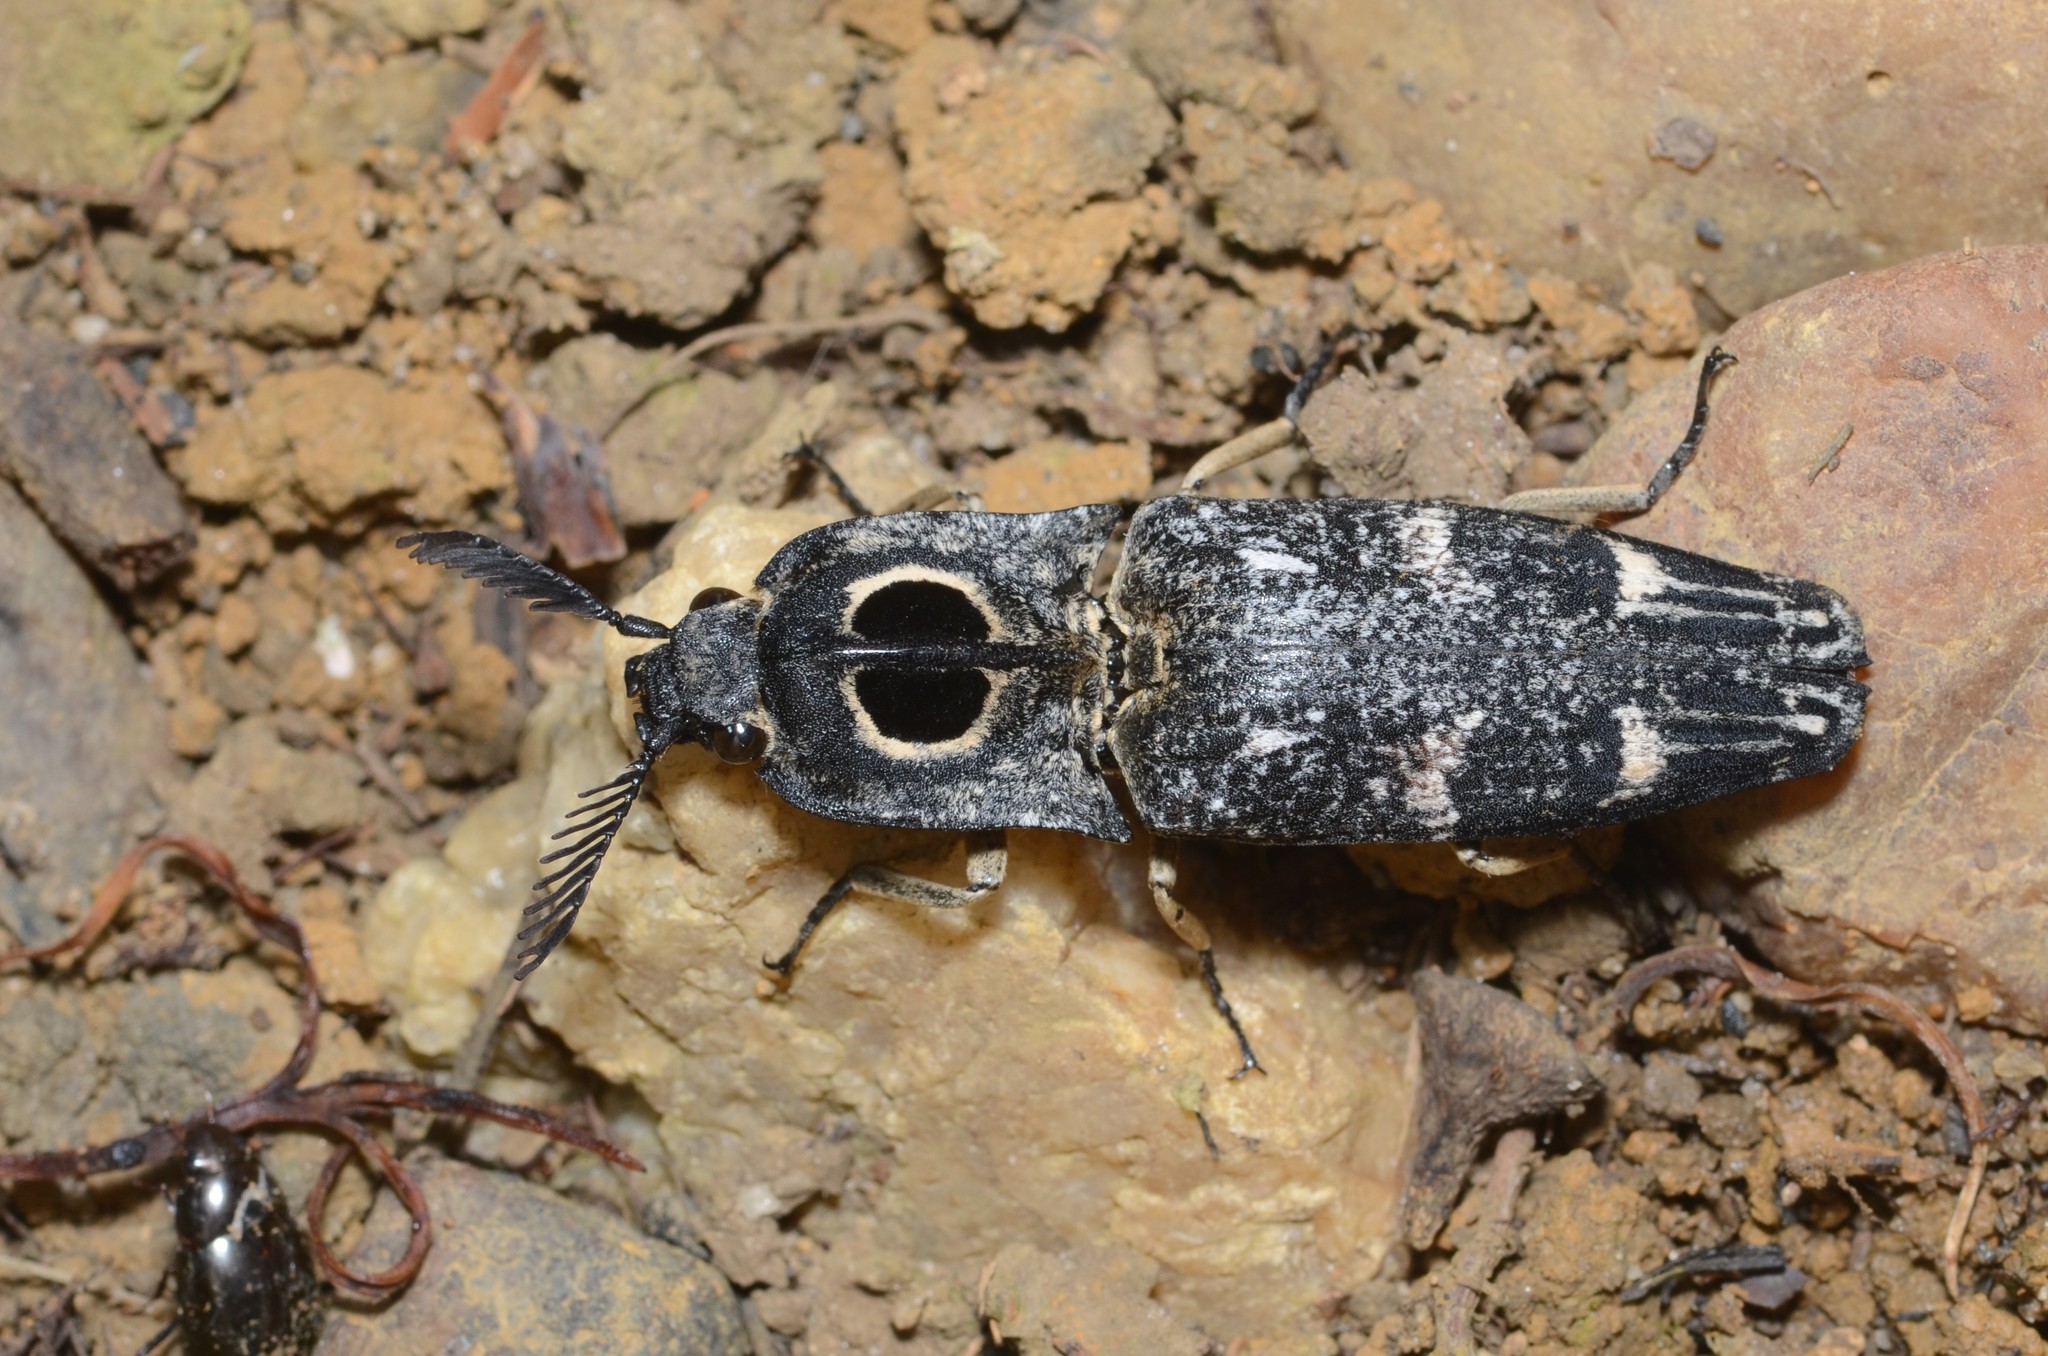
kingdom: Animalia
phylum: Arthropoda
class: Insecta
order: Coleoptera
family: Elateridae
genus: Neolycoreus
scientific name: Neolycoreus
